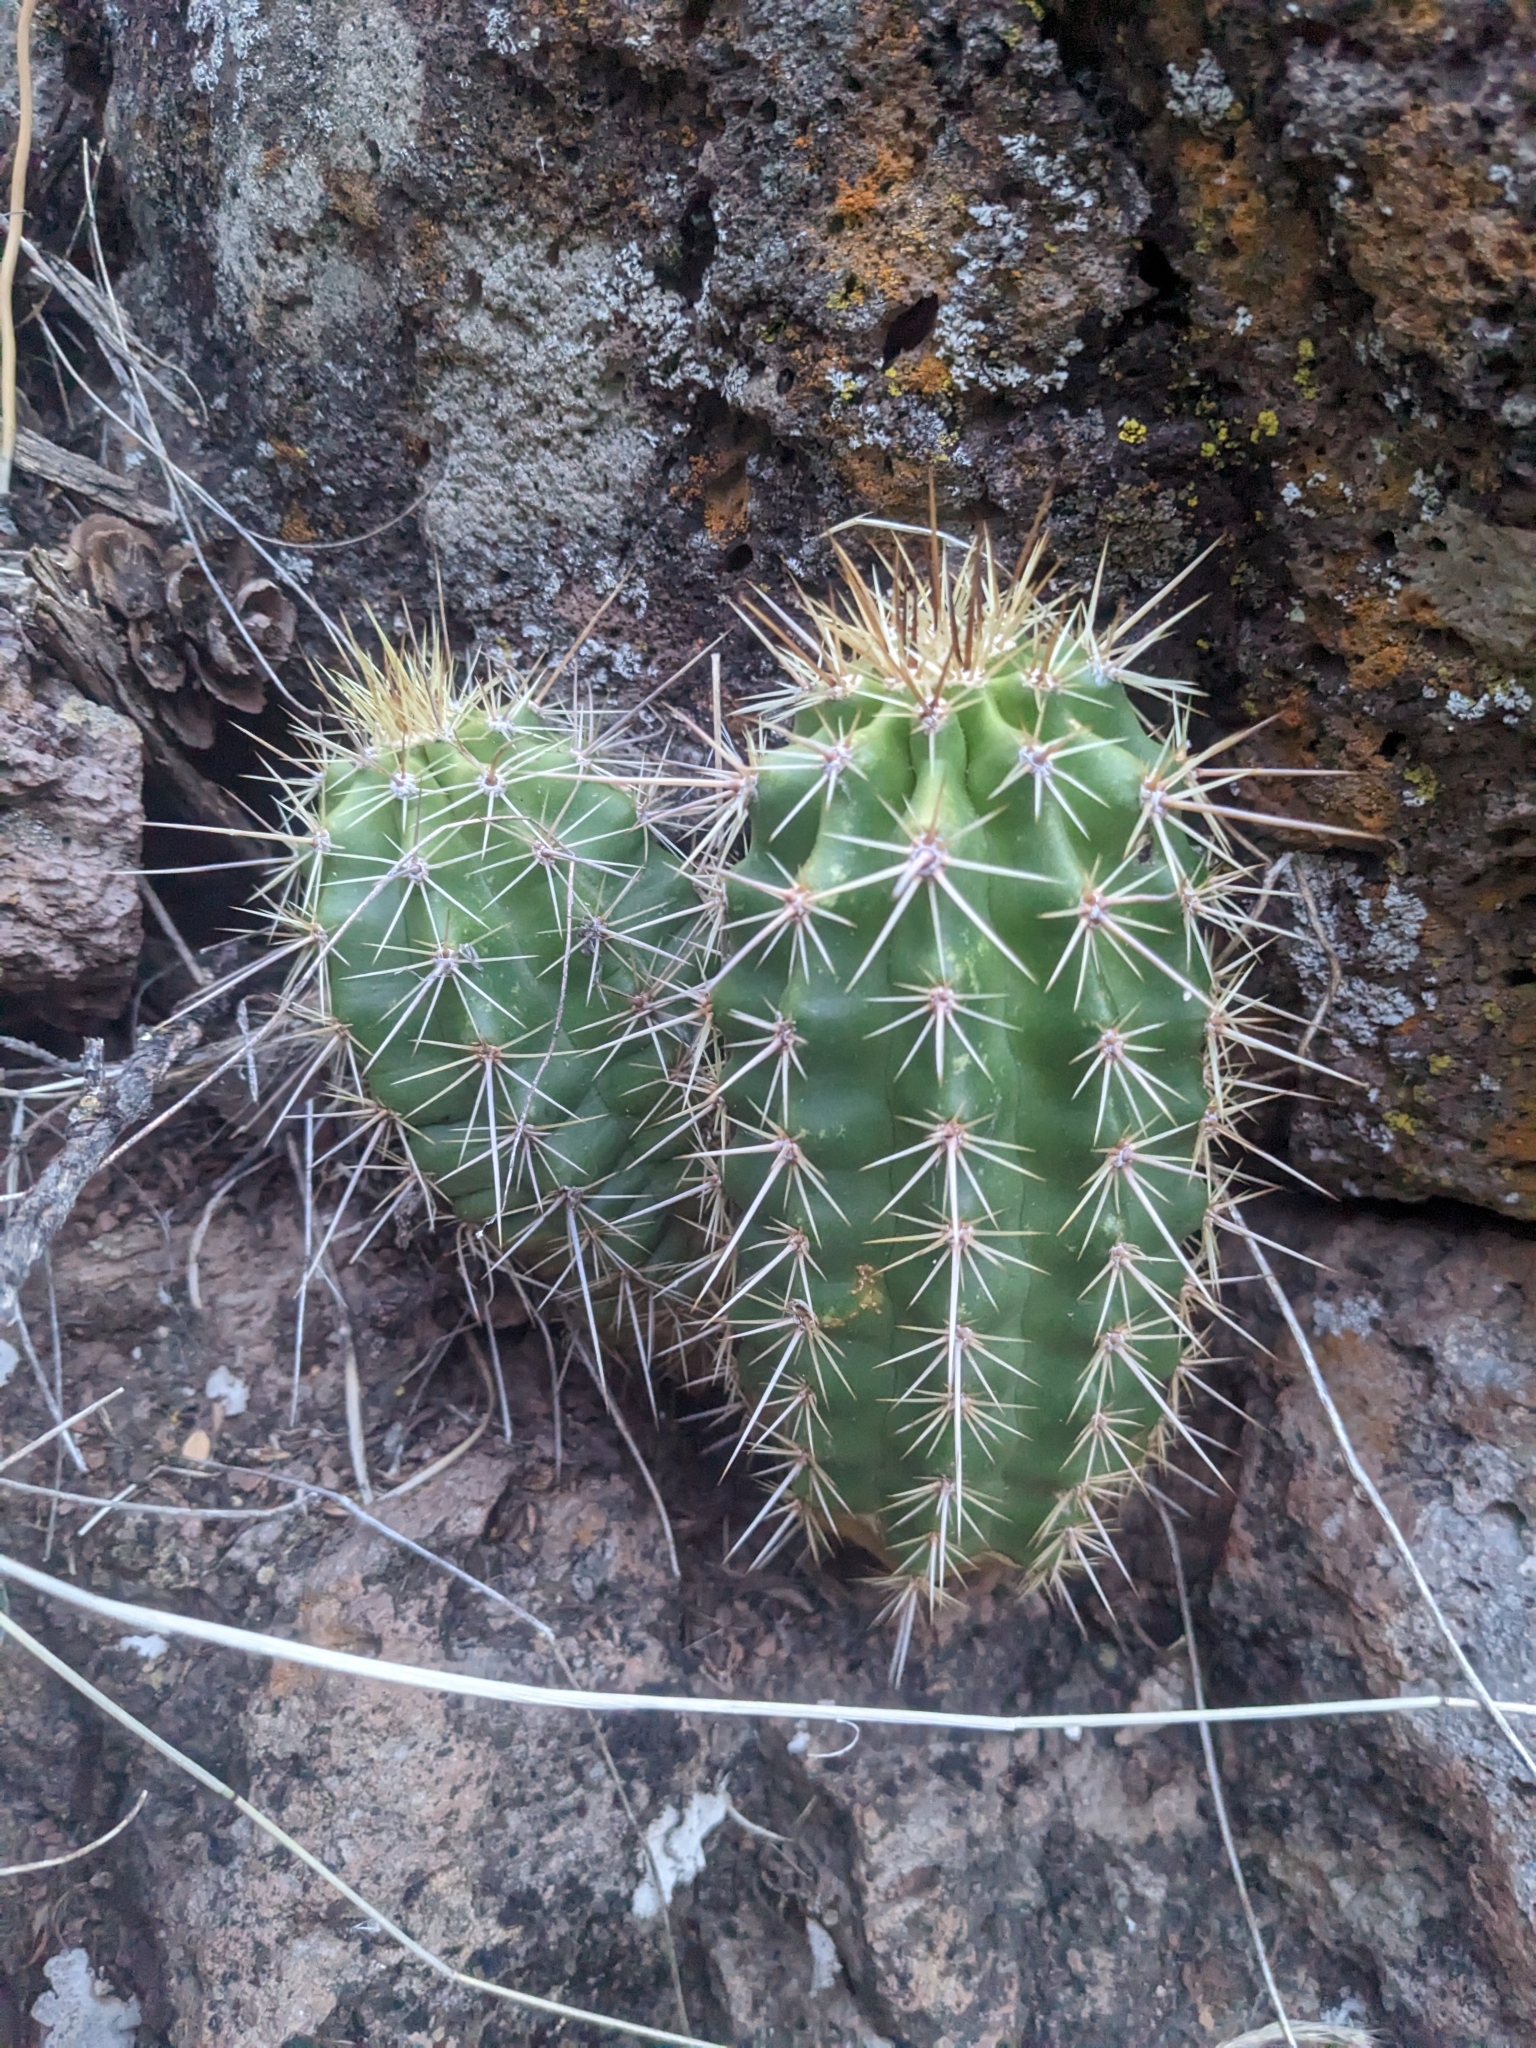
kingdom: Plantae
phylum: Tracheophyta
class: Magnoliopsida
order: Caryophyllales
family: Cactaceae
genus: Echinocereus
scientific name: Echinocereus arizonicus
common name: Arizona hedgehog cactus
